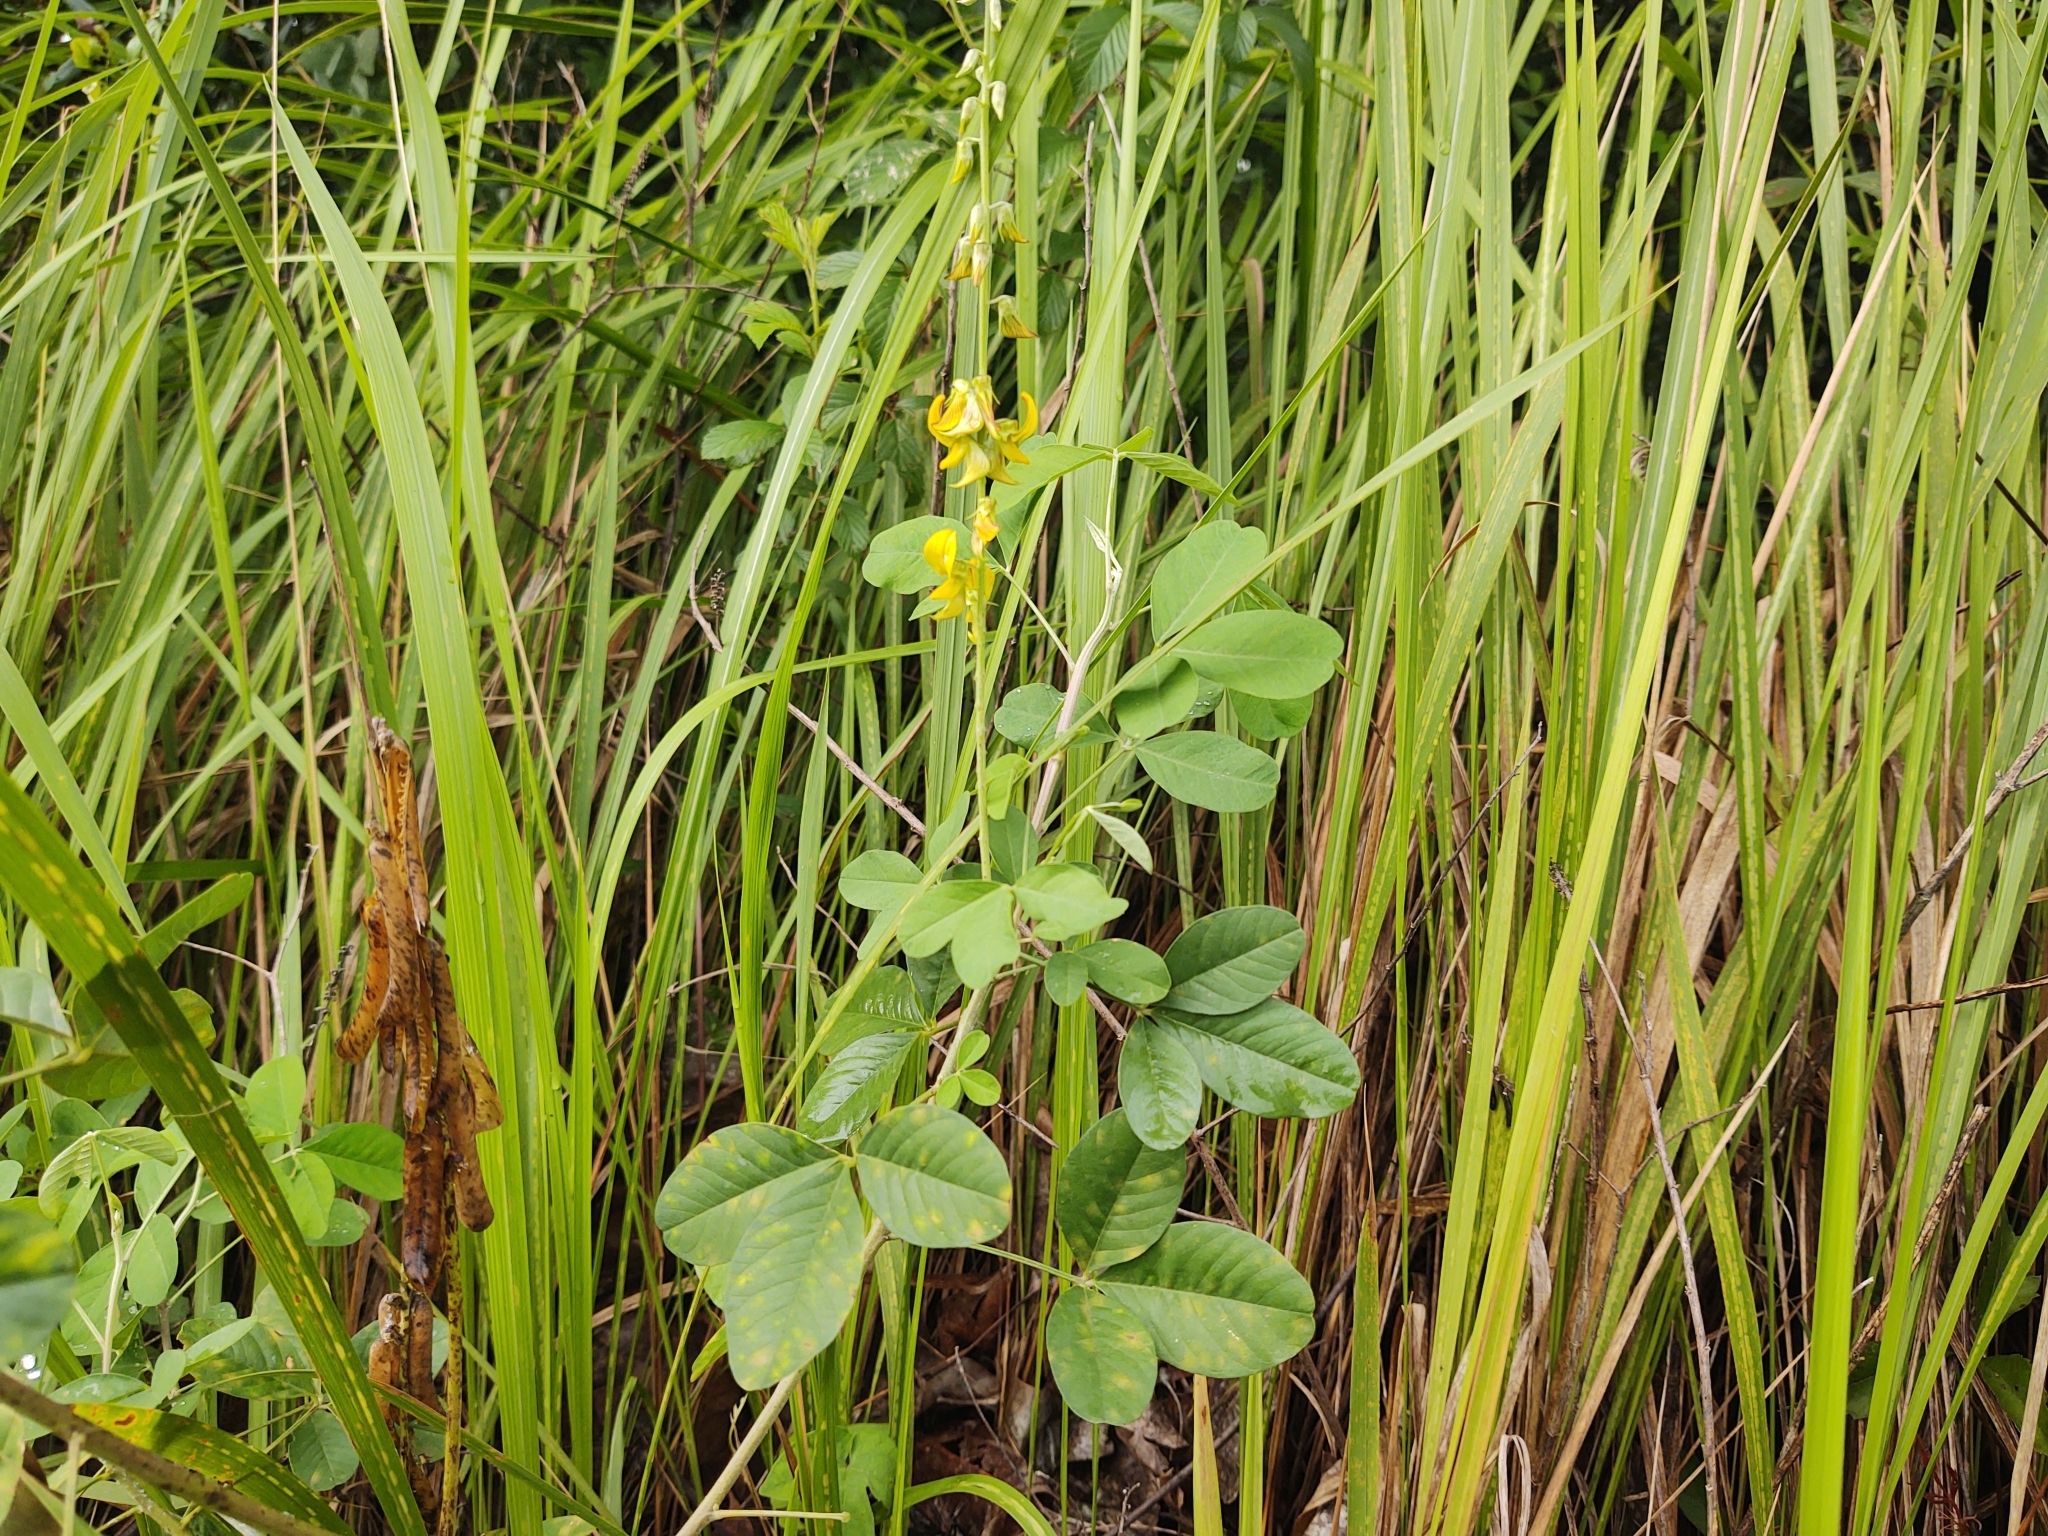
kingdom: Plantae
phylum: Tracheophyta
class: Magnoliopsida
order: Fabales
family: Fabaceae
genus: Crotalaria
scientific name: Crotalaria pallida
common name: Smooth rattlebox
